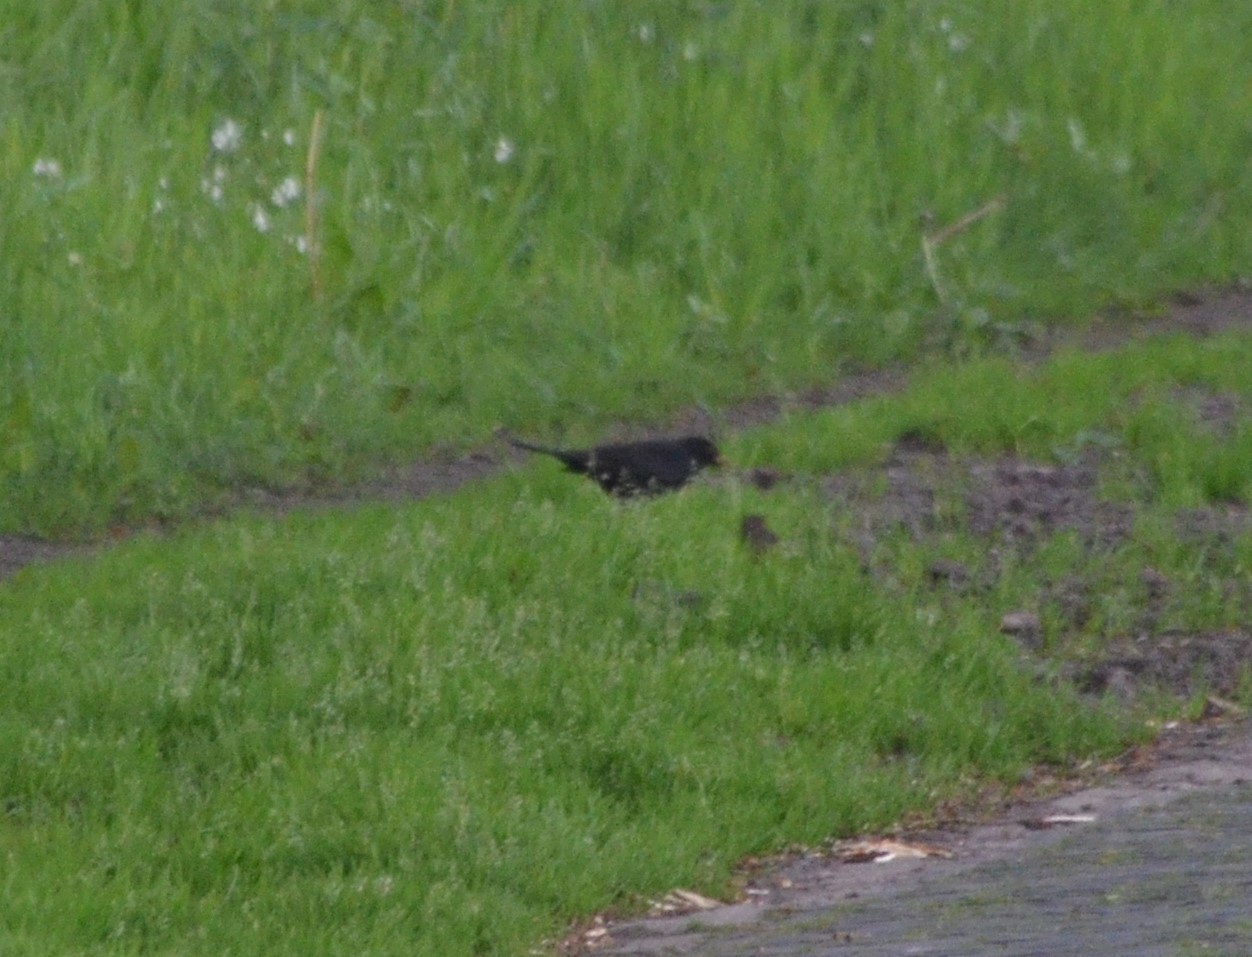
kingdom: Animalia
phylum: Chordata
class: Aves
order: Passeriformes
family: Turdidae
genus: Turdus
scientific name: Turdus merula
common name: Common blackbird
